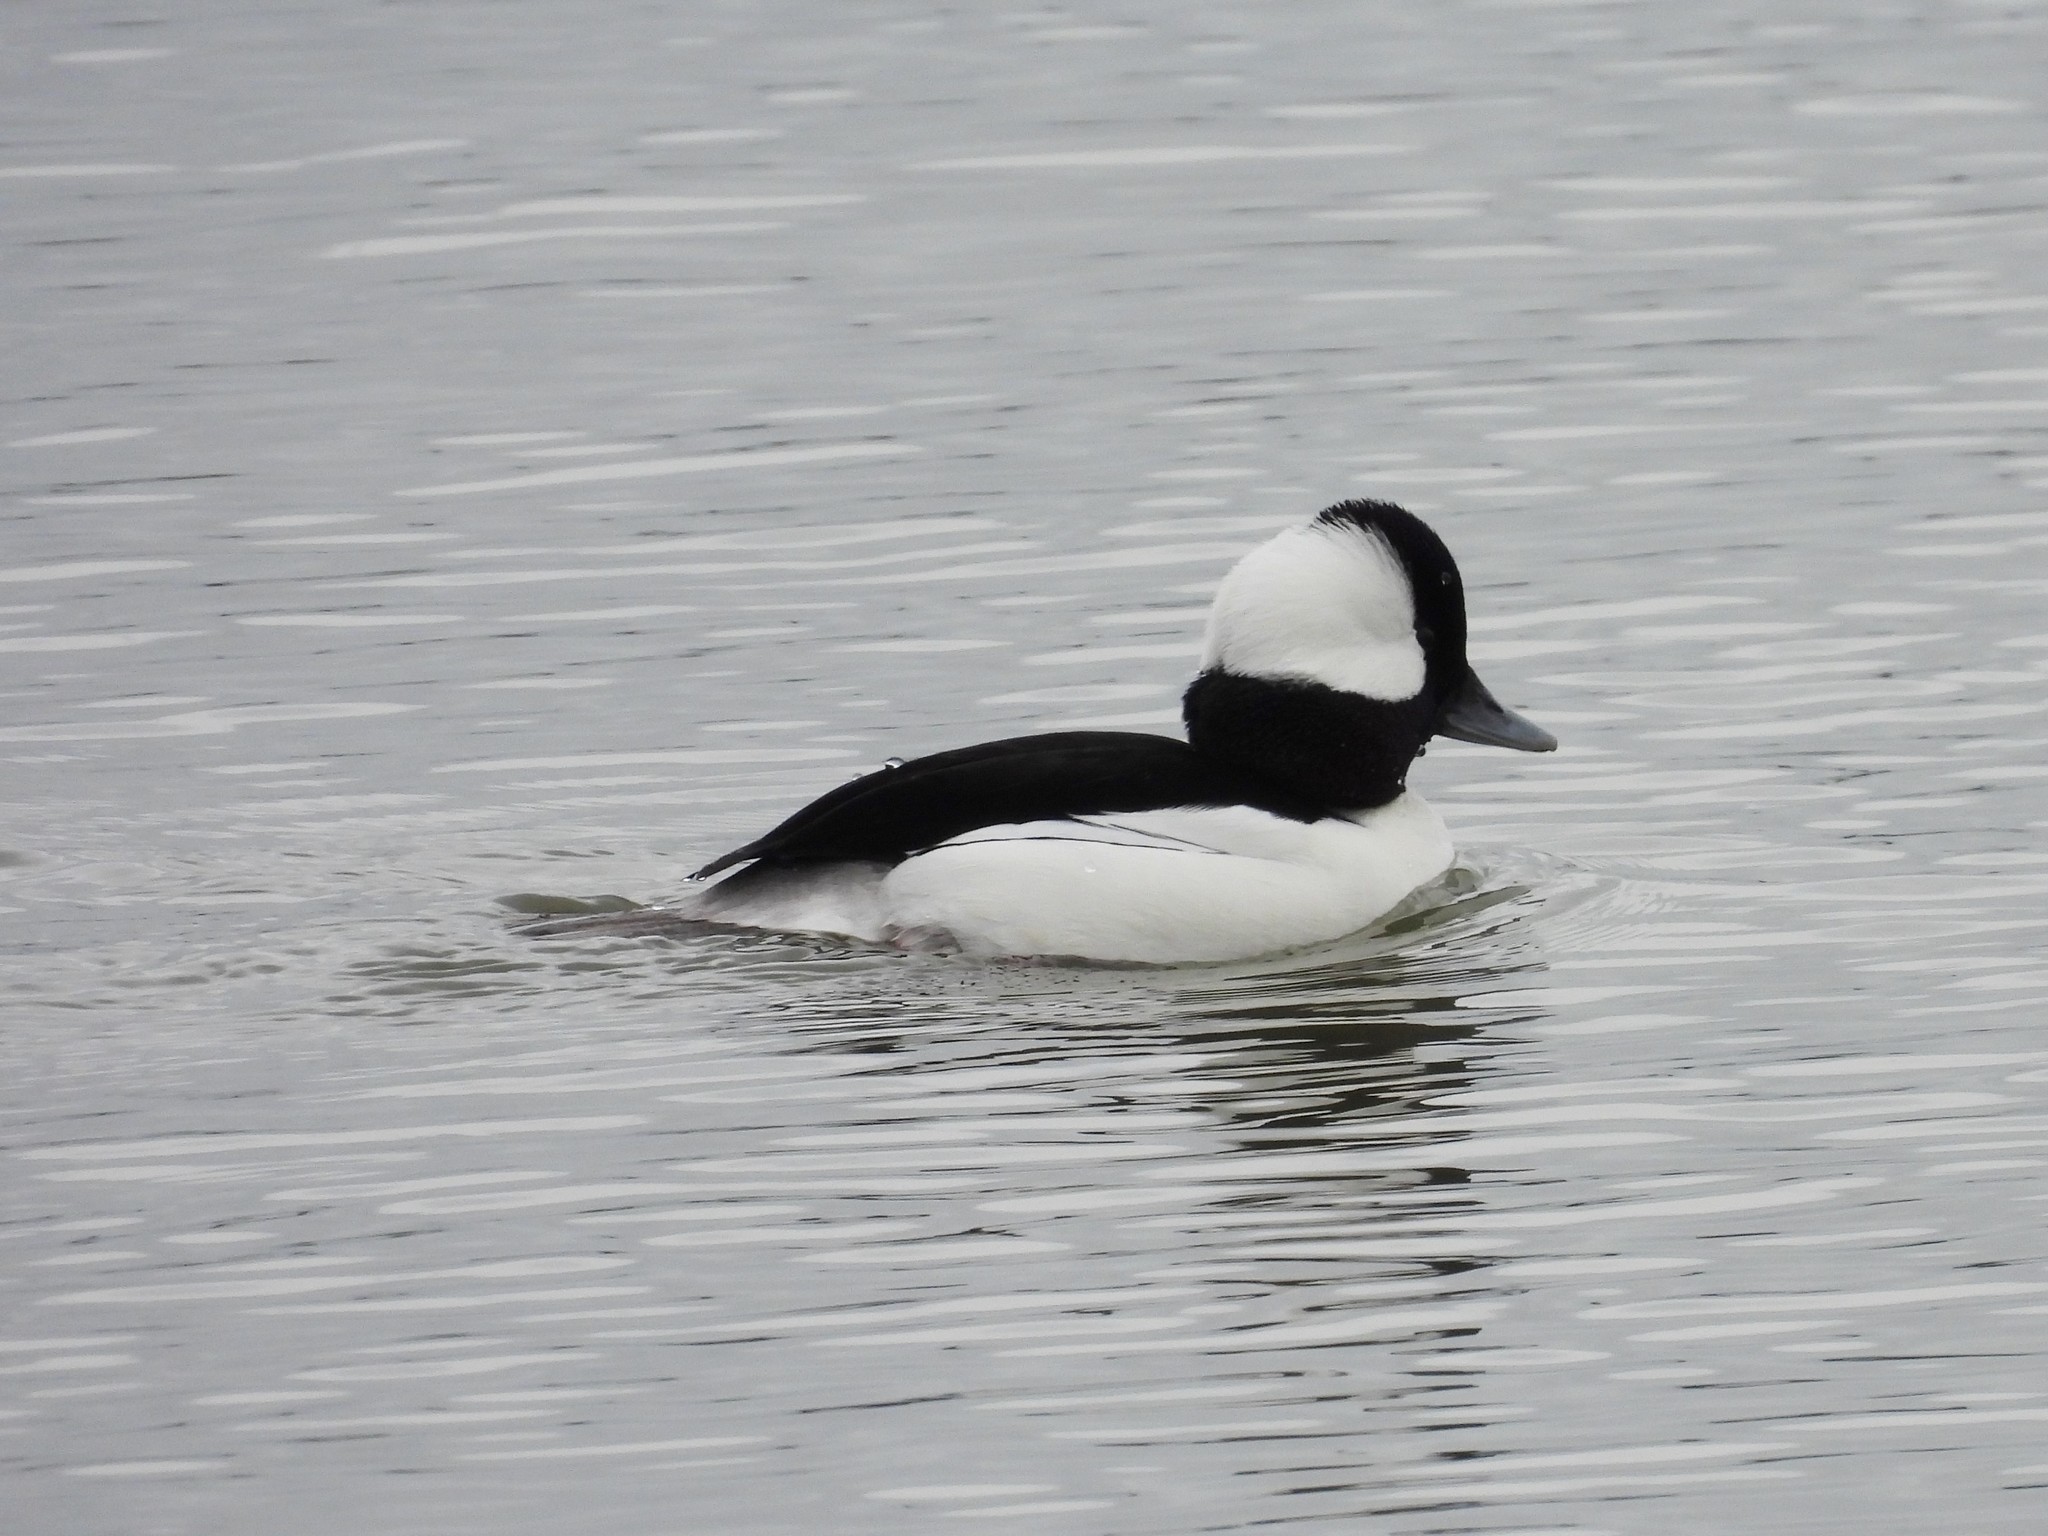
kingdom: Animalia
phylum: Chordata
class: Aves
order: Anseriformes
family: Anatidae
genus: Bucephala
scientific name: Bucephala albeola
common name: Bufflehead
